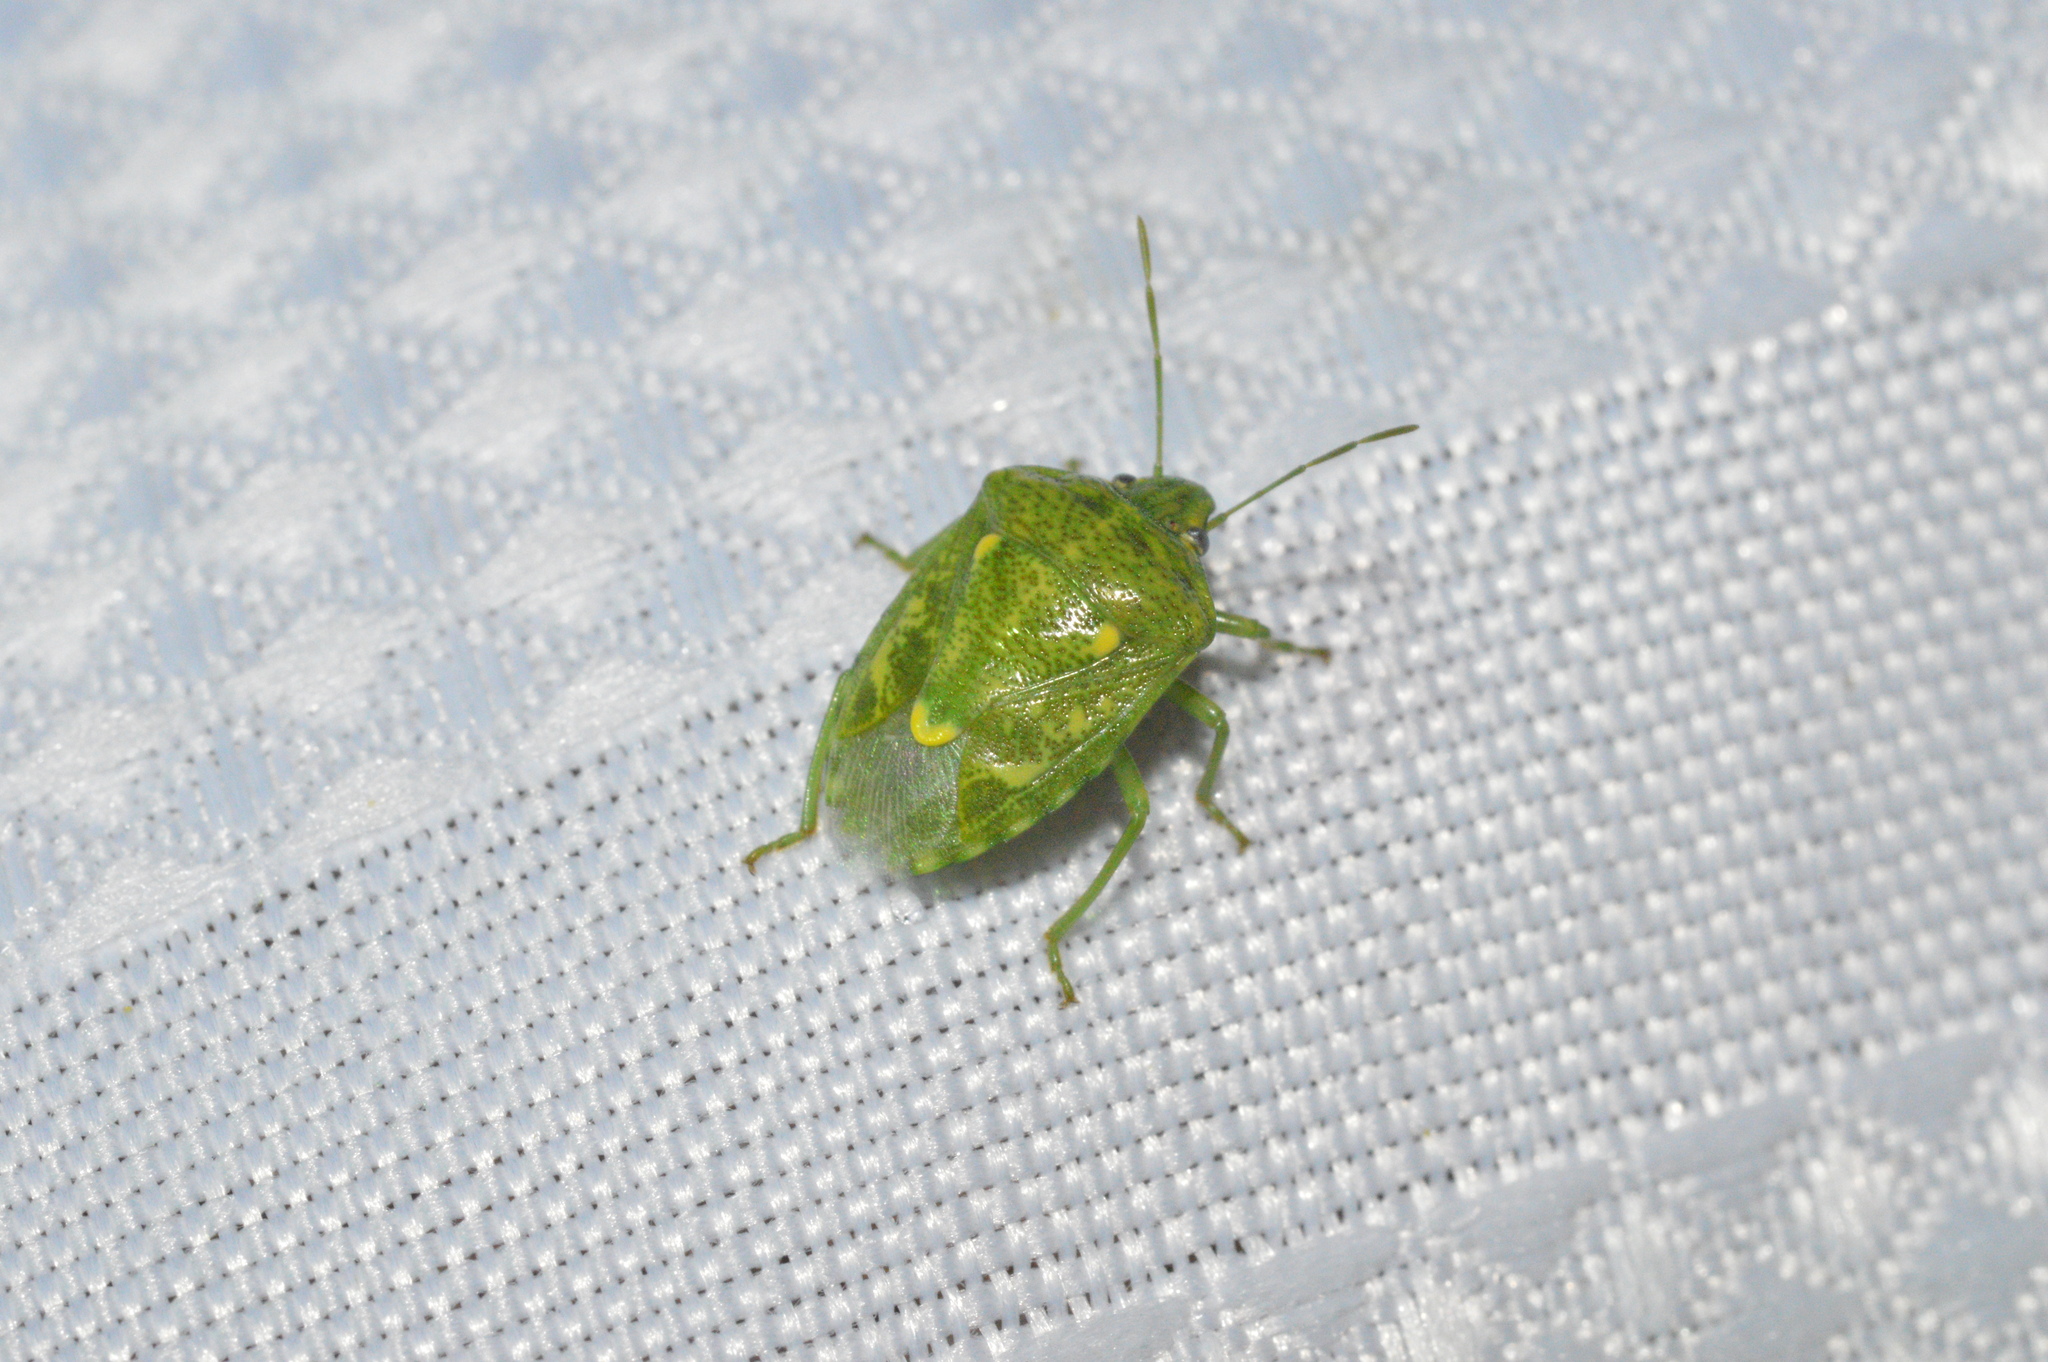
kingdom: Animalia
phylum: Arthropoda
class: Insecta
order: Hemiptera
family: Pentatomidae
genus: Banasa
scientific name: Banasa euchlora
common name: Cedar berry bug
